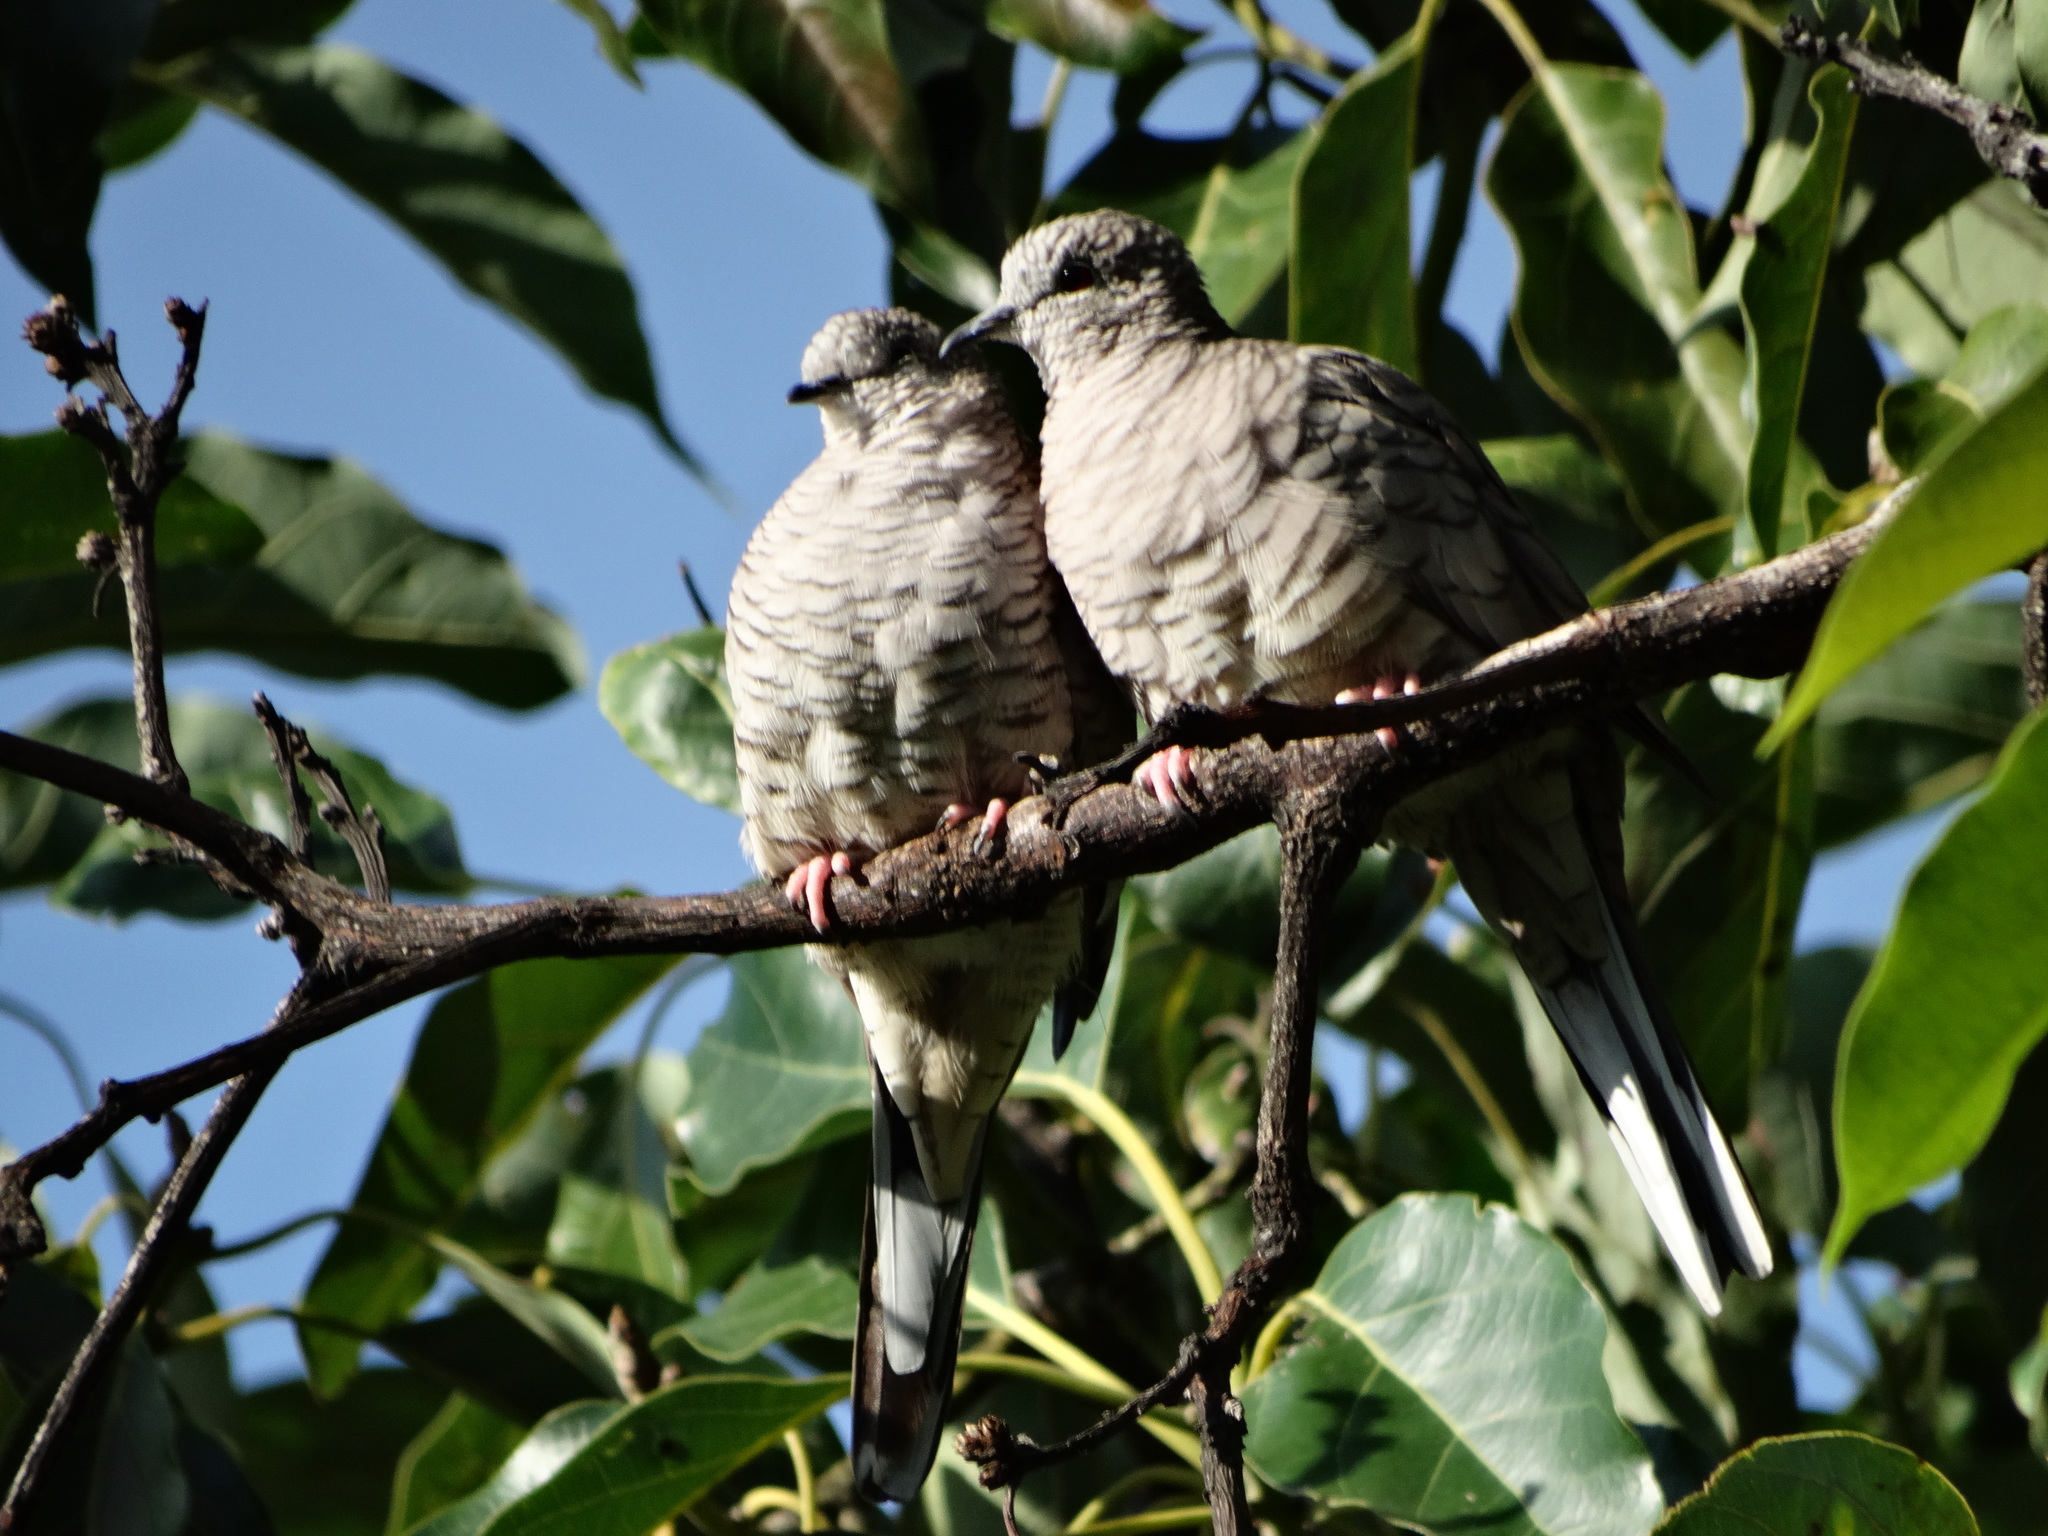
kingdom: Animalia
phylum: Chordata
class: Aves
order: Columbiformes
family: Columbidae
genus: Columbina
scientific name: Columbina inca
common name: Inca dove
